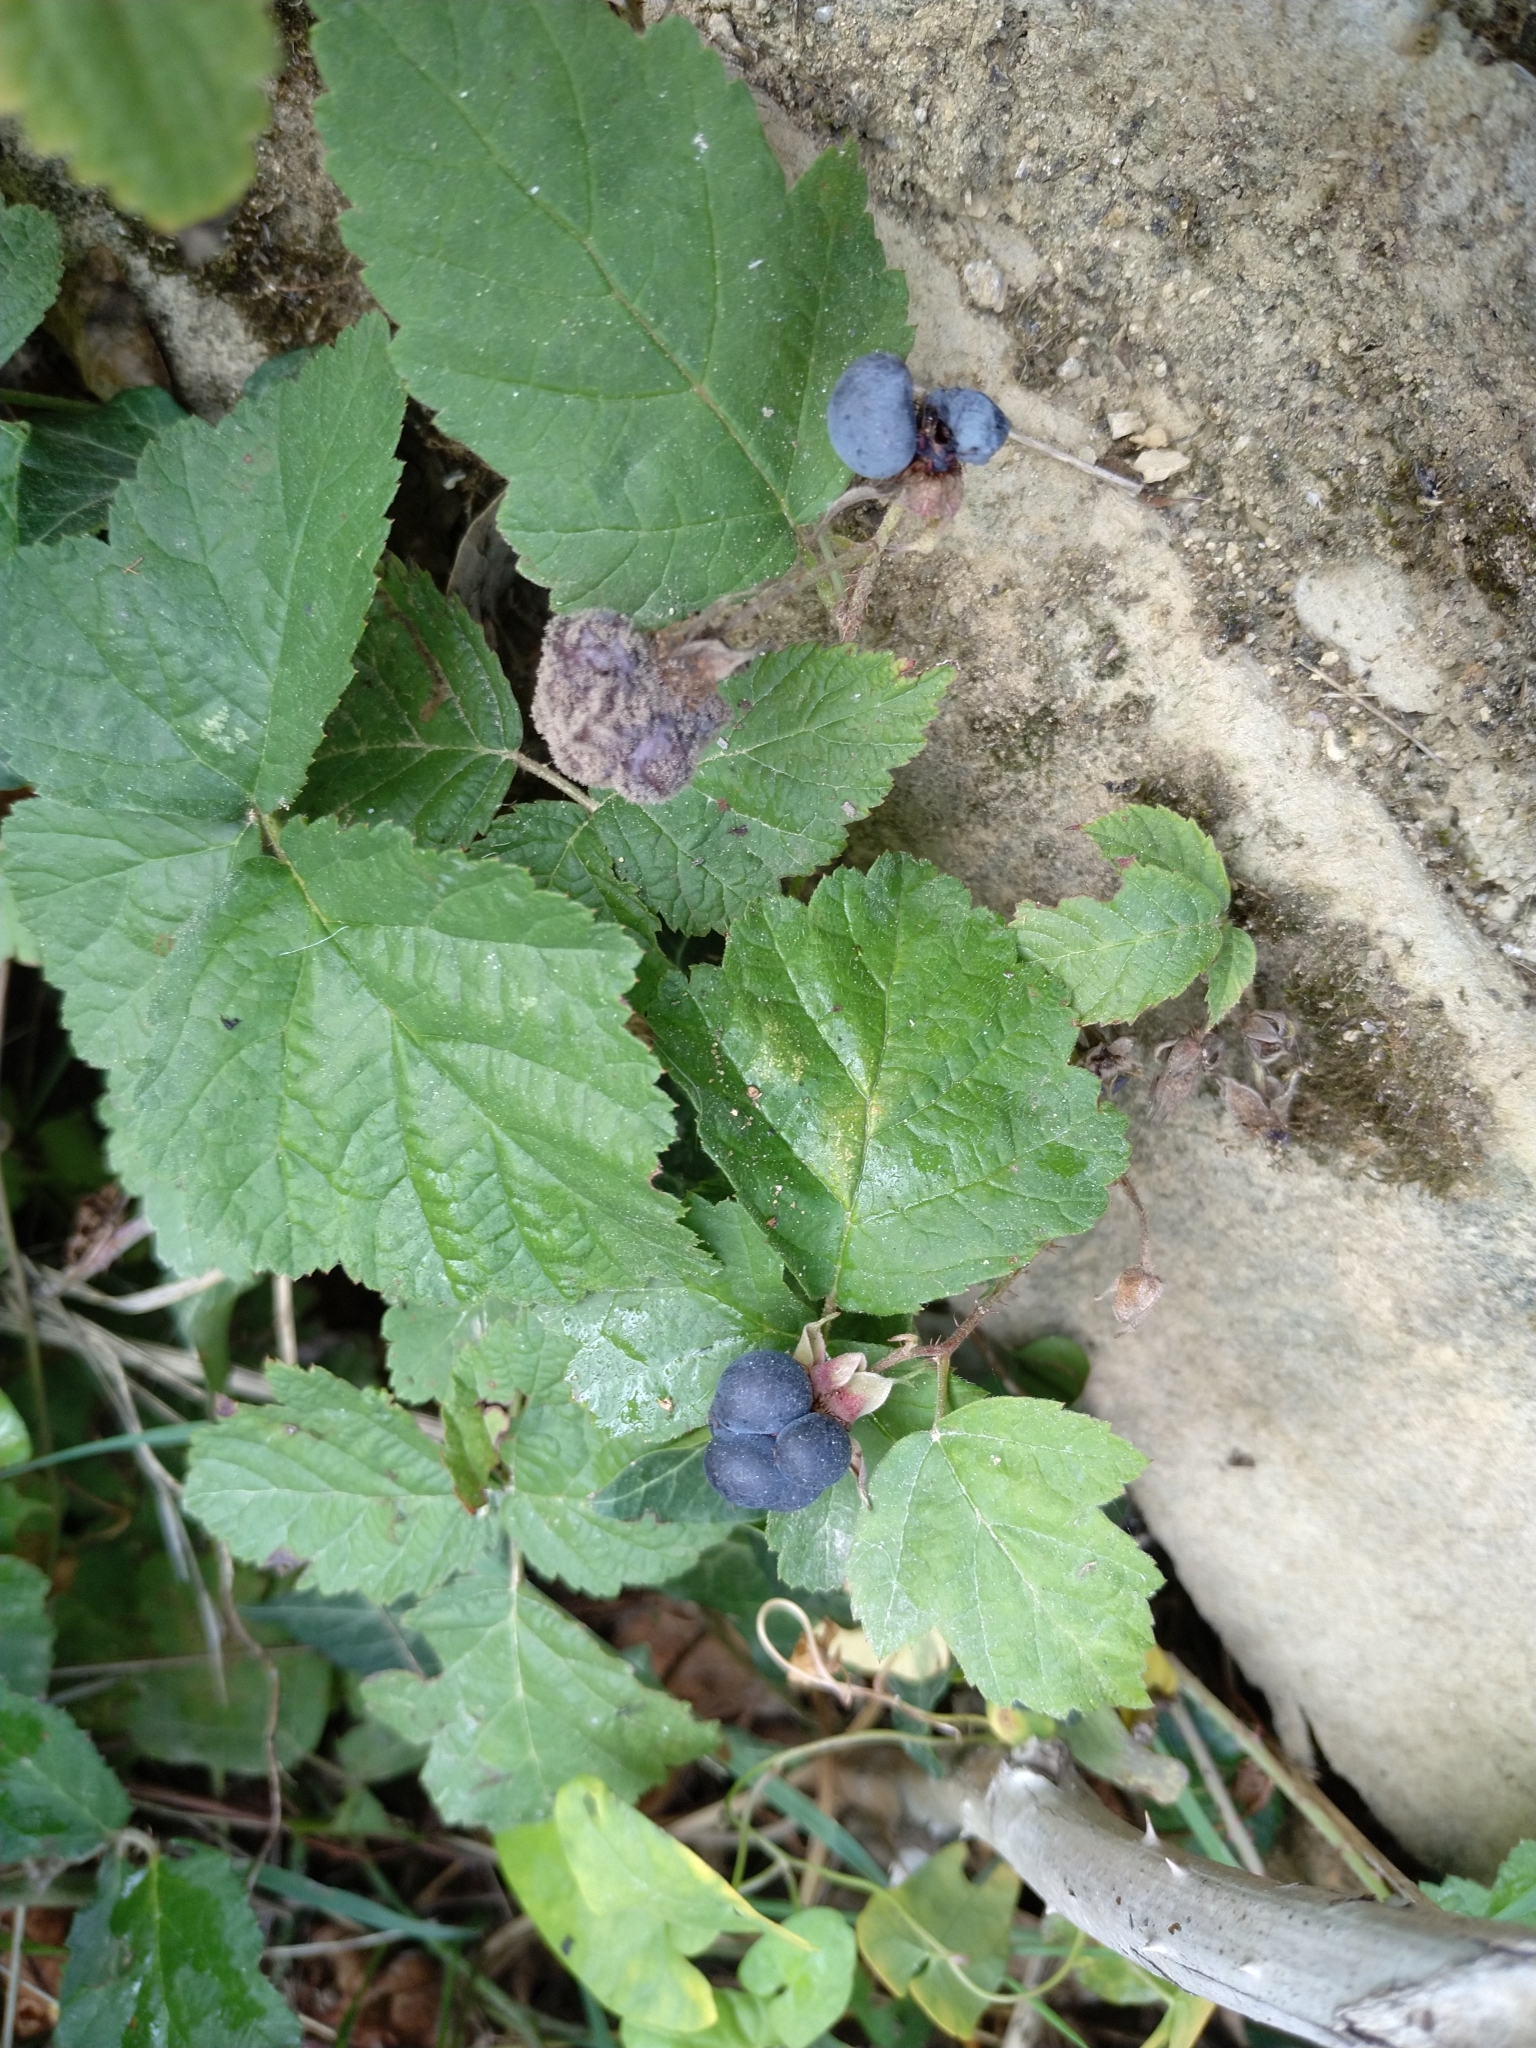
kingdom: Plantae
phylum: Tracheophyta
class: Magnoliopsida
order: Rosales
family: Rosaceae
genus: Rubus
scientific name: Rubus caesius
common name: Dewberry
